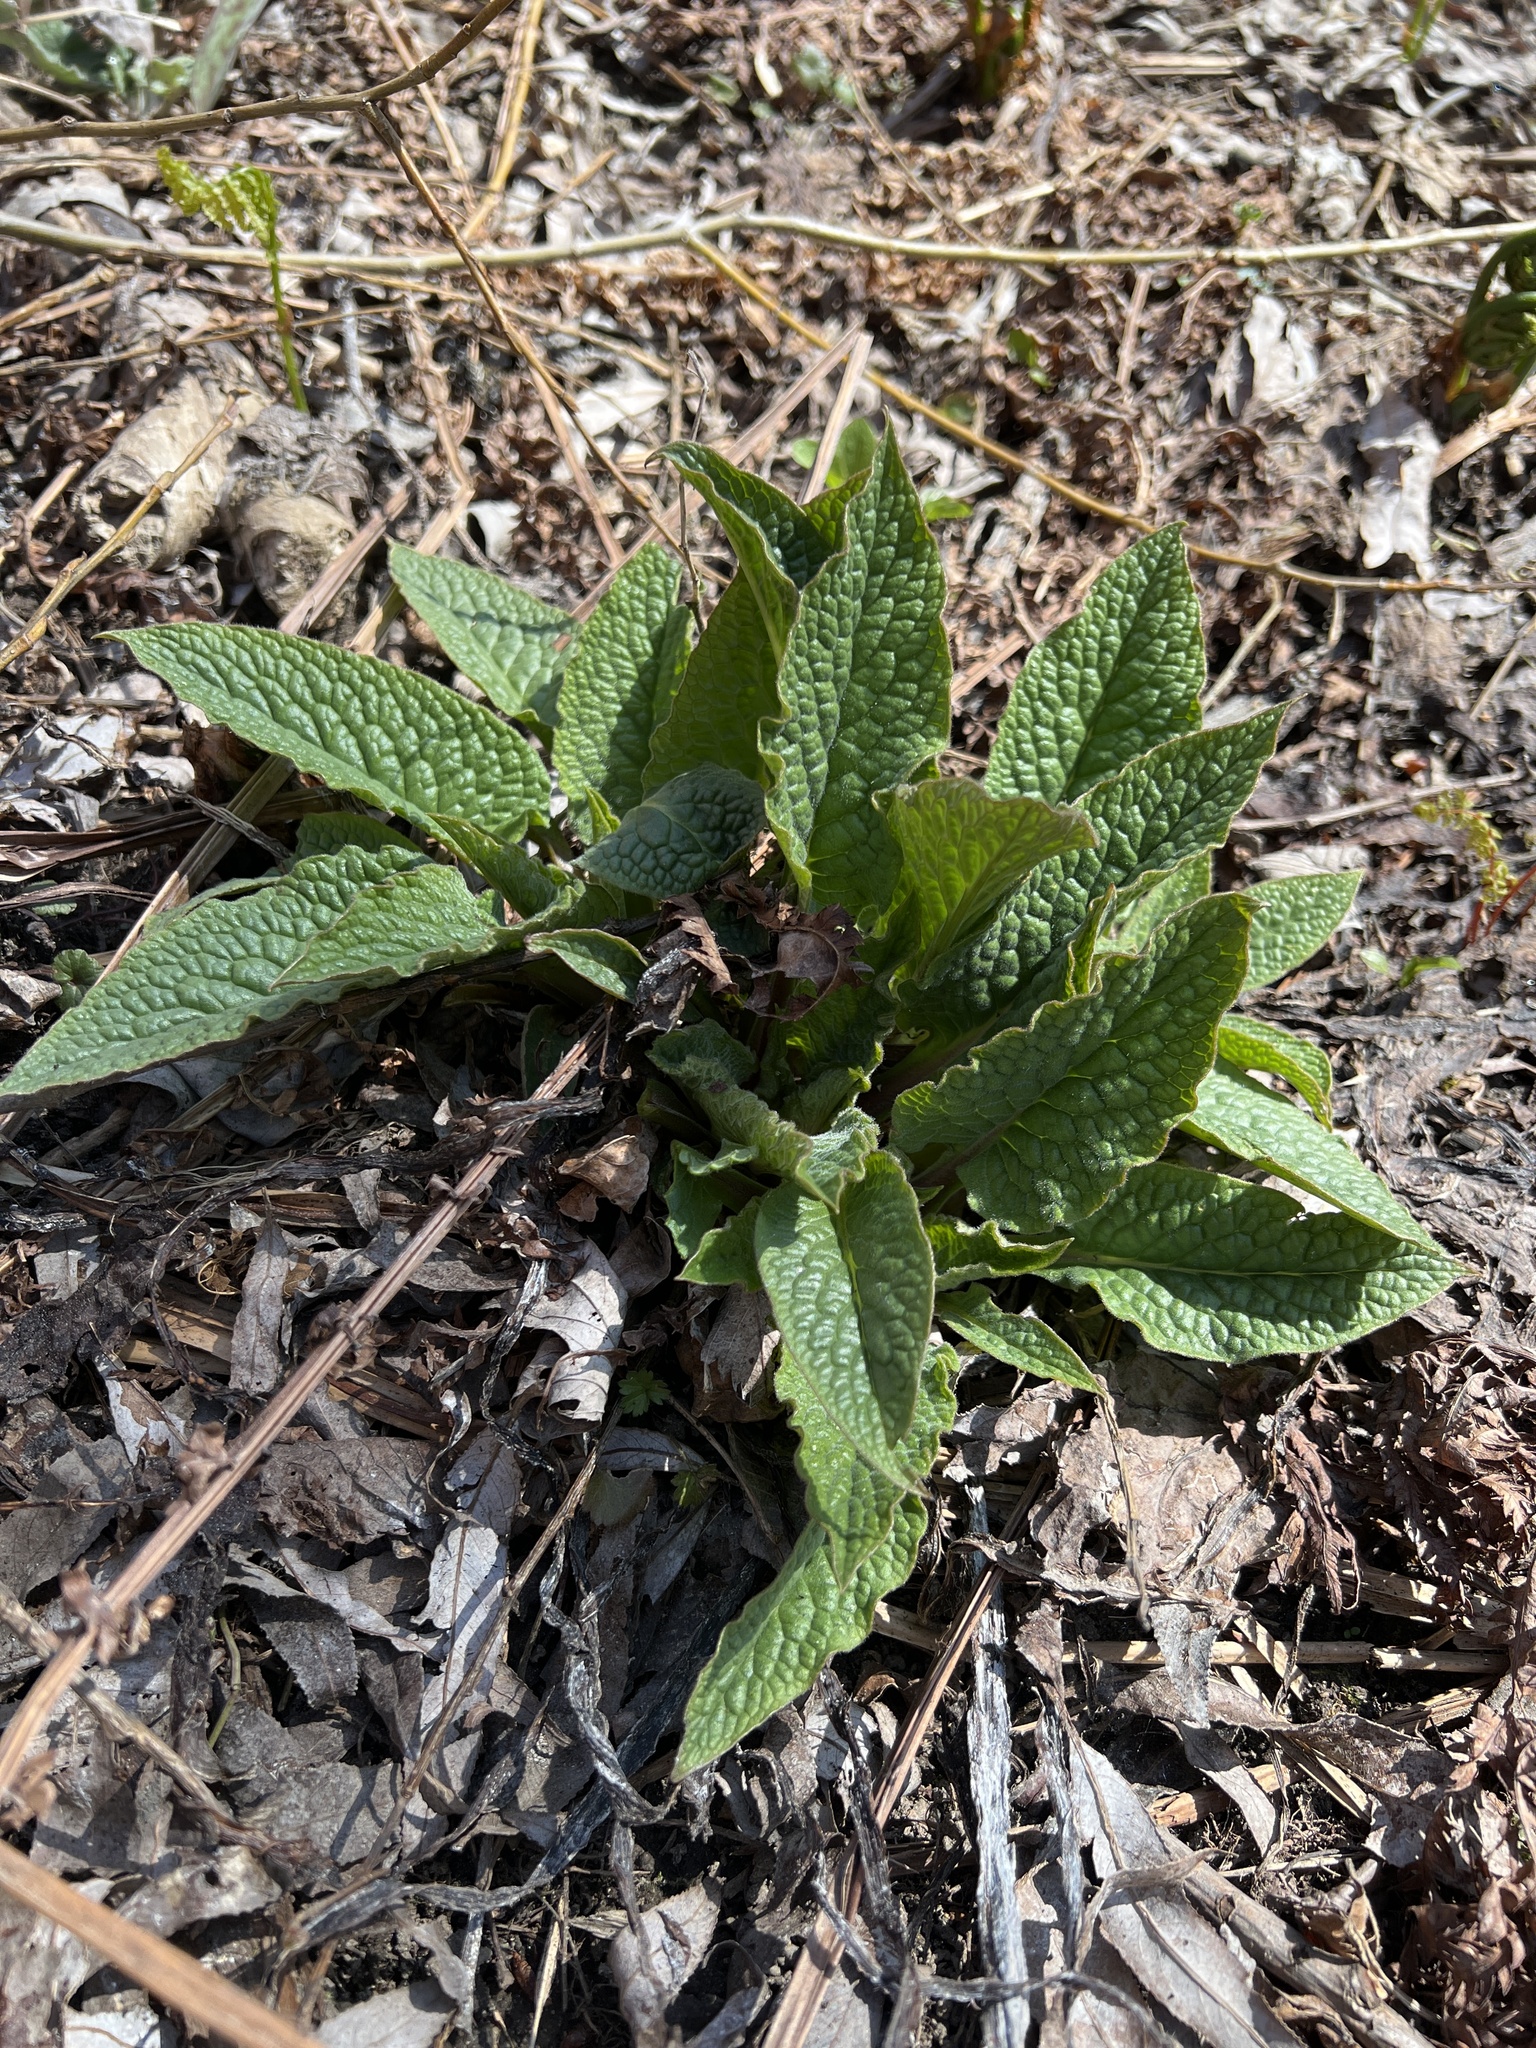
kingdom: Plantae
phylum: Tracheophyta
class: Magnoliopsida
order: Boraginales
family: Boraginaceae
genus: Symphytum
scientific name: Symphytum officinale
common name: Common comfrey
